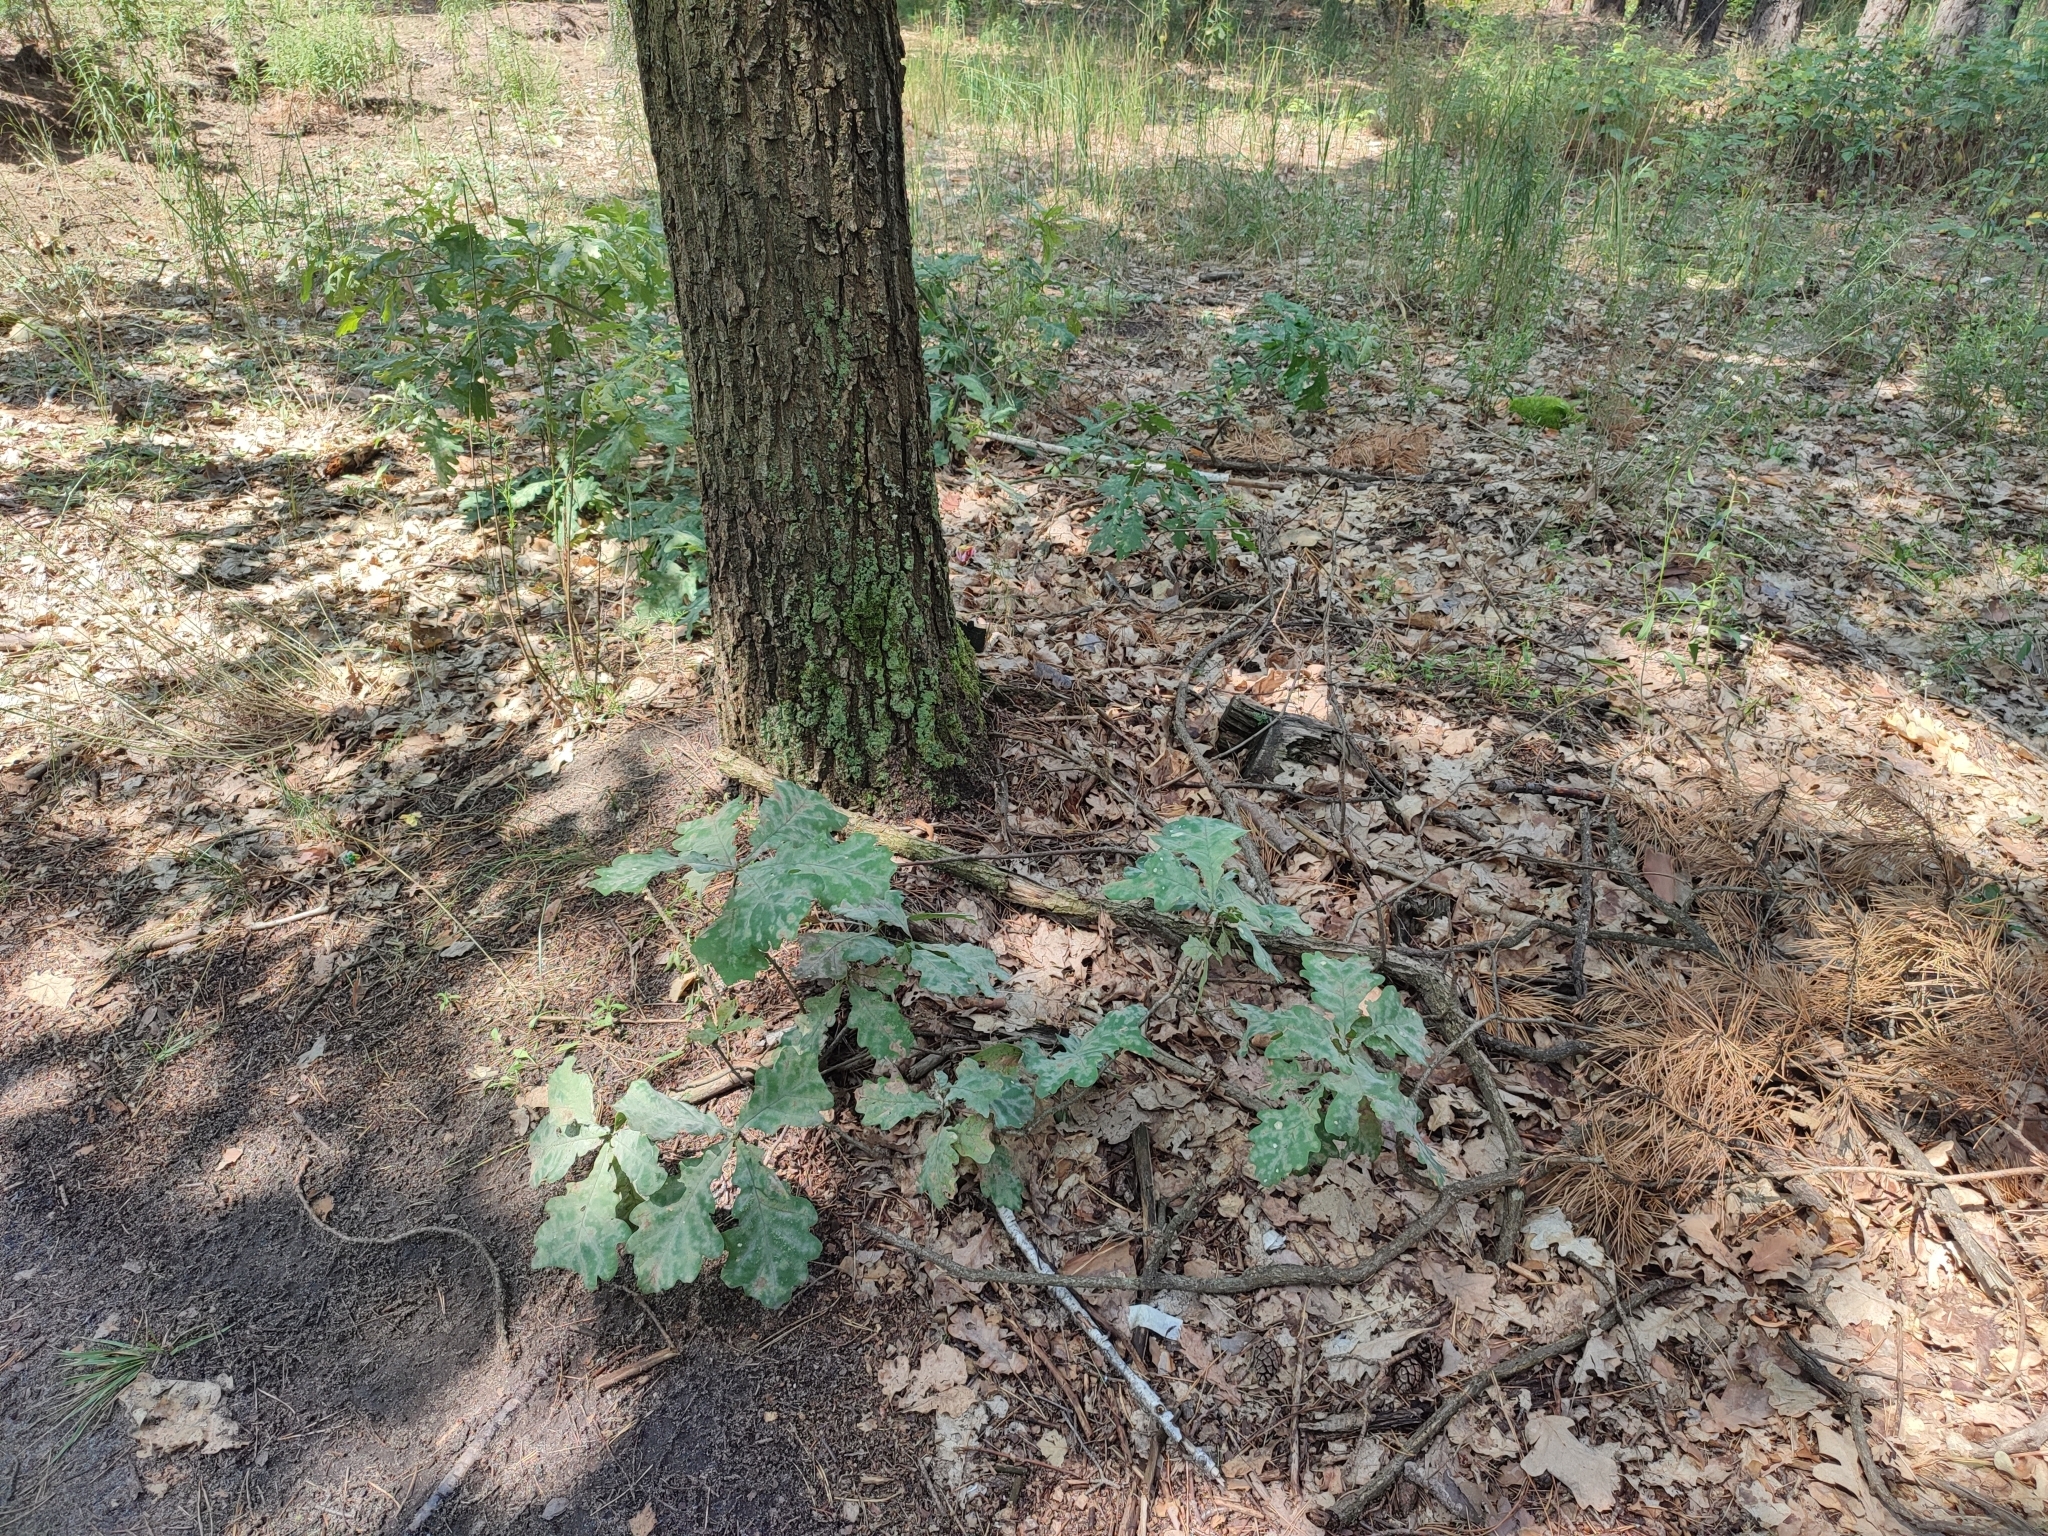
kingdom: Plantae
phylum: Tracheophyta
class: Magnoliopsida
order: Fagales
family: Fagaceae
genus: Quercus
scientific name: Quercus robur
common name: Pedunculate oak
